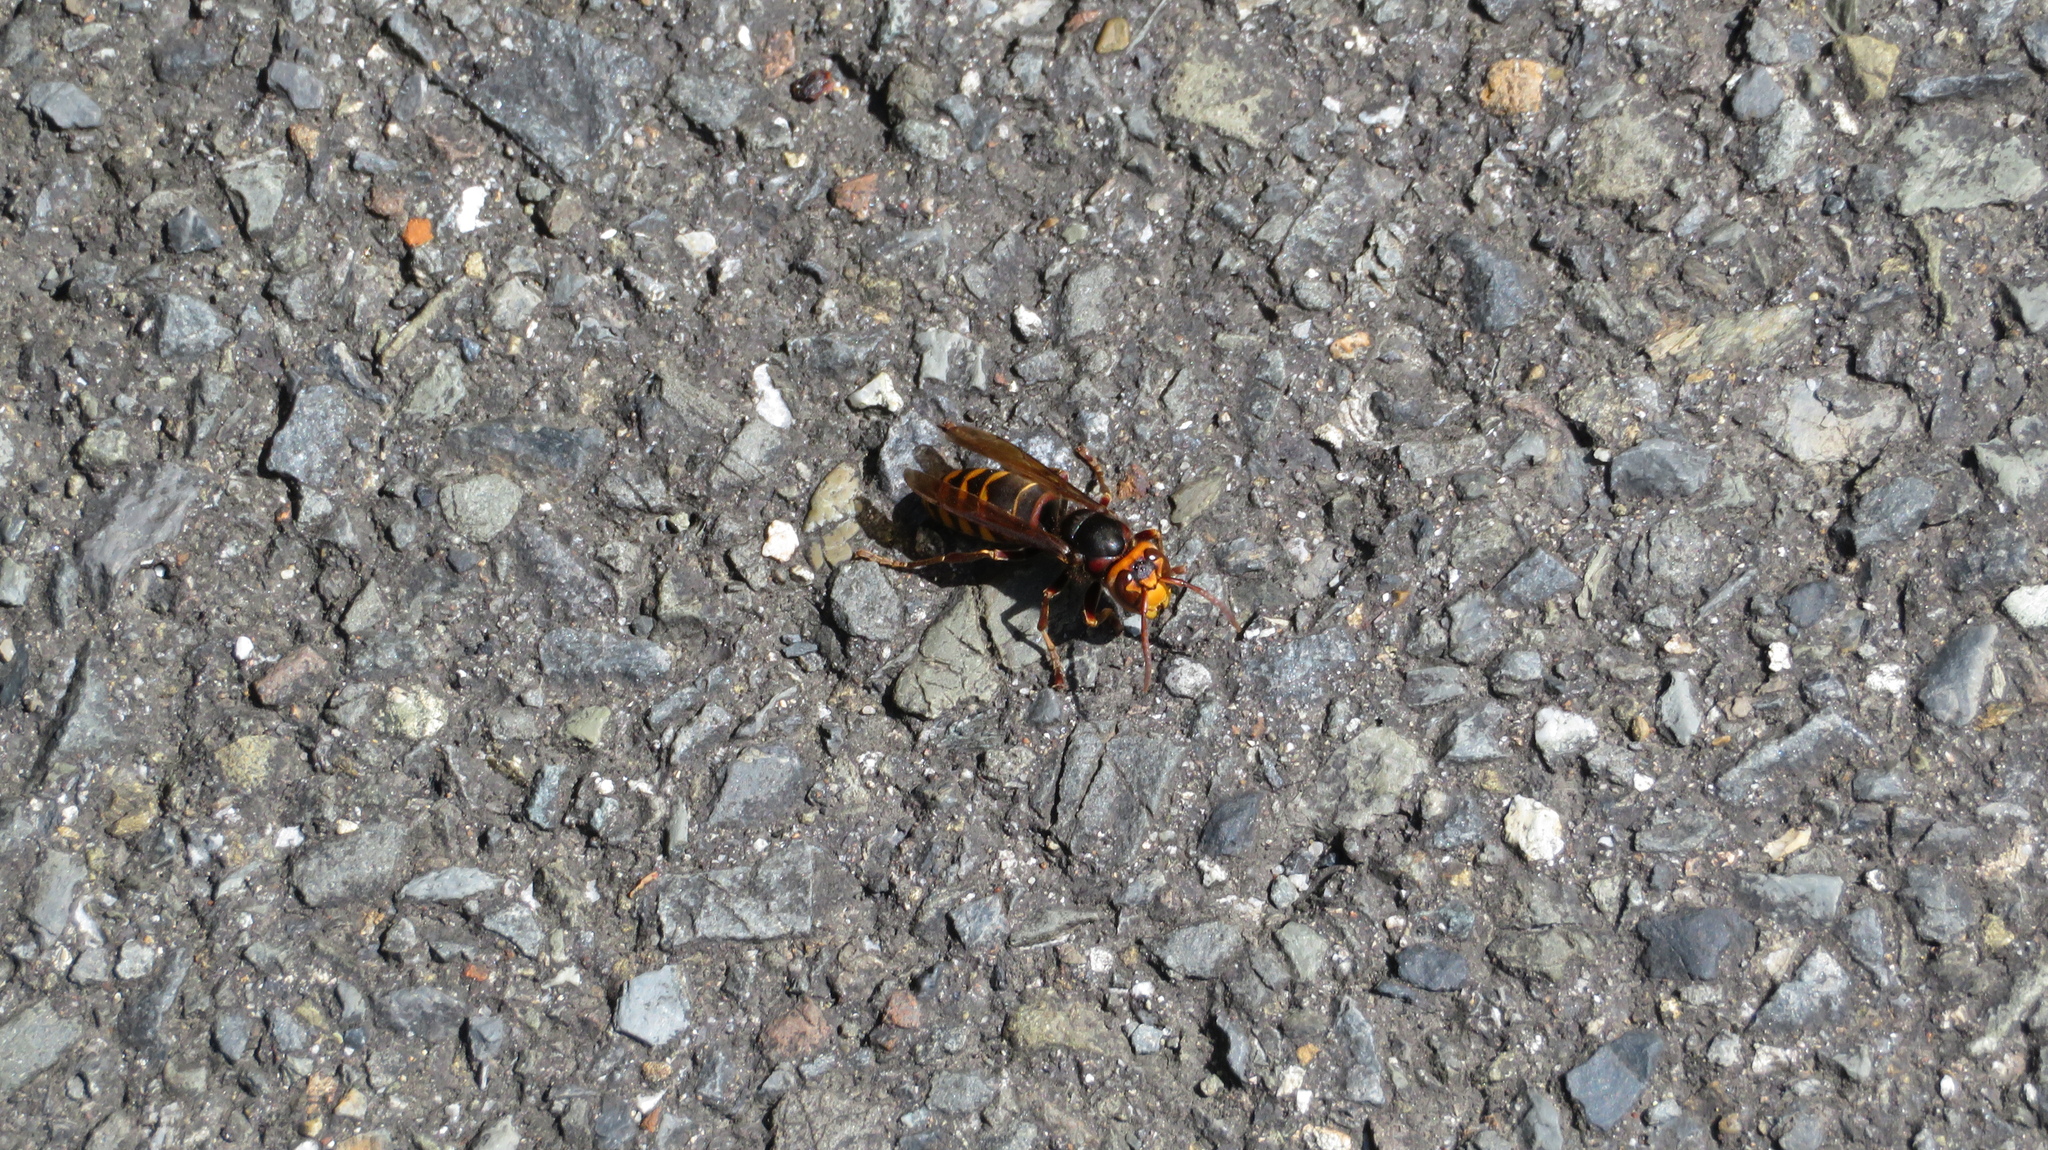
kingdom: Animalia
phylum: Arthropoda
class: Insecta
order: Hymenoptera
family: Vespidae
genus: Vespa
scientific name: Vespa crabro
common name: Hornet
